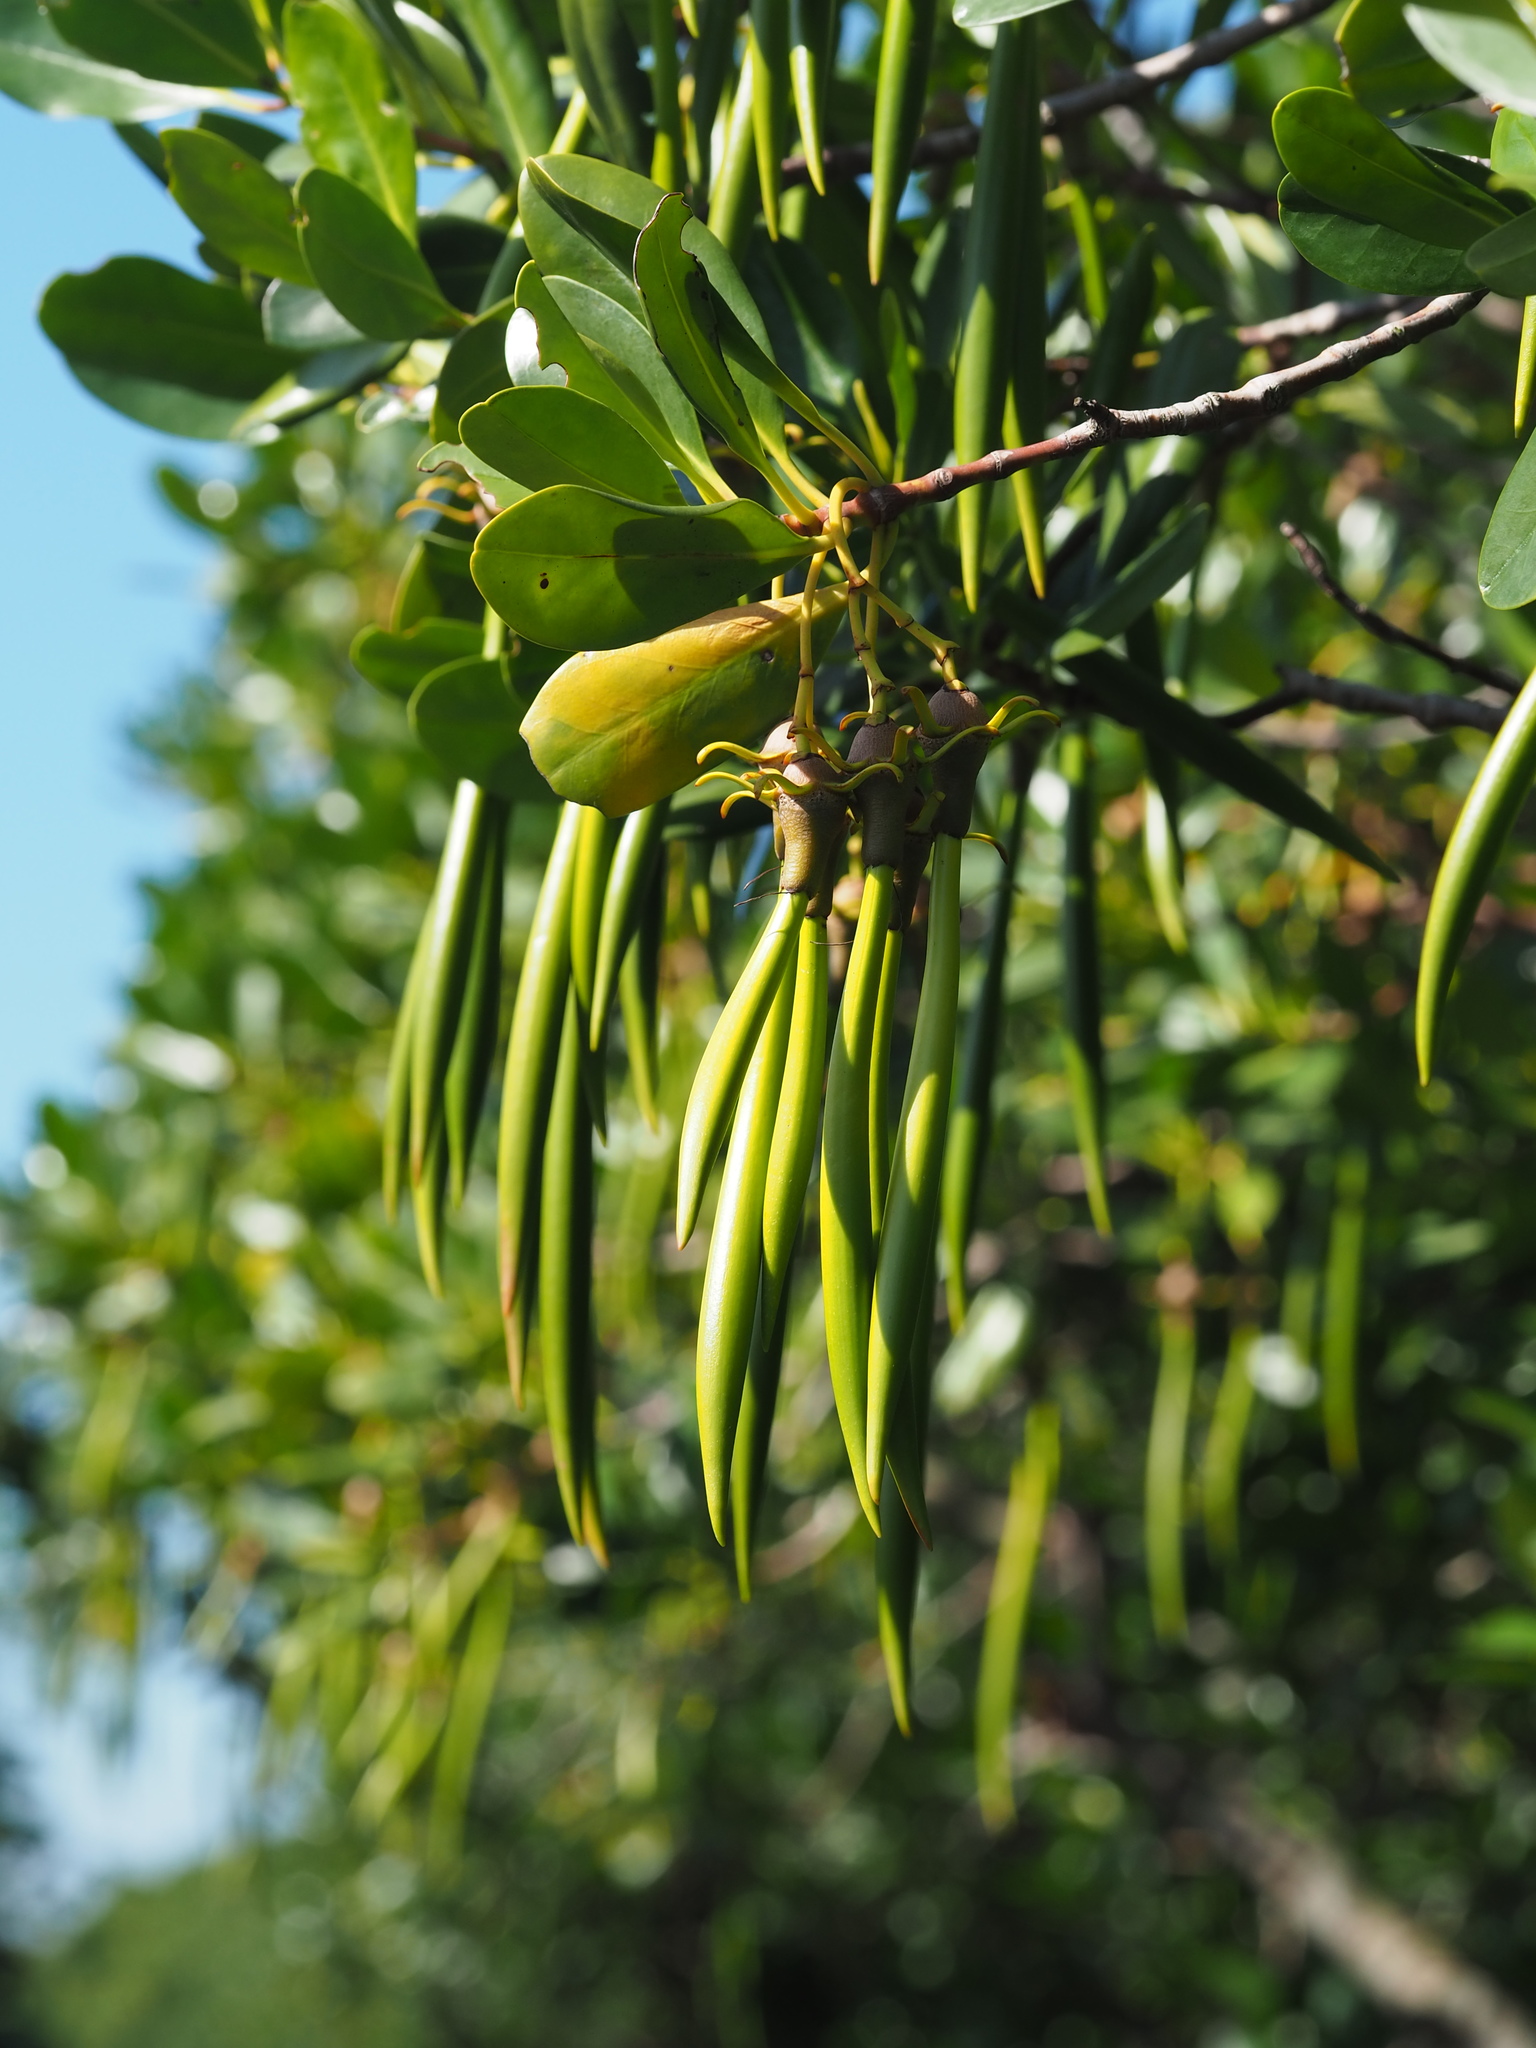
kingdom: Plantae
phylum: Tracheophyta
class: Magnoliopsida
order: Malpighiales
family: Rhizophoraceae
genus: Kandelia
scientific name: Kandelia obovata
